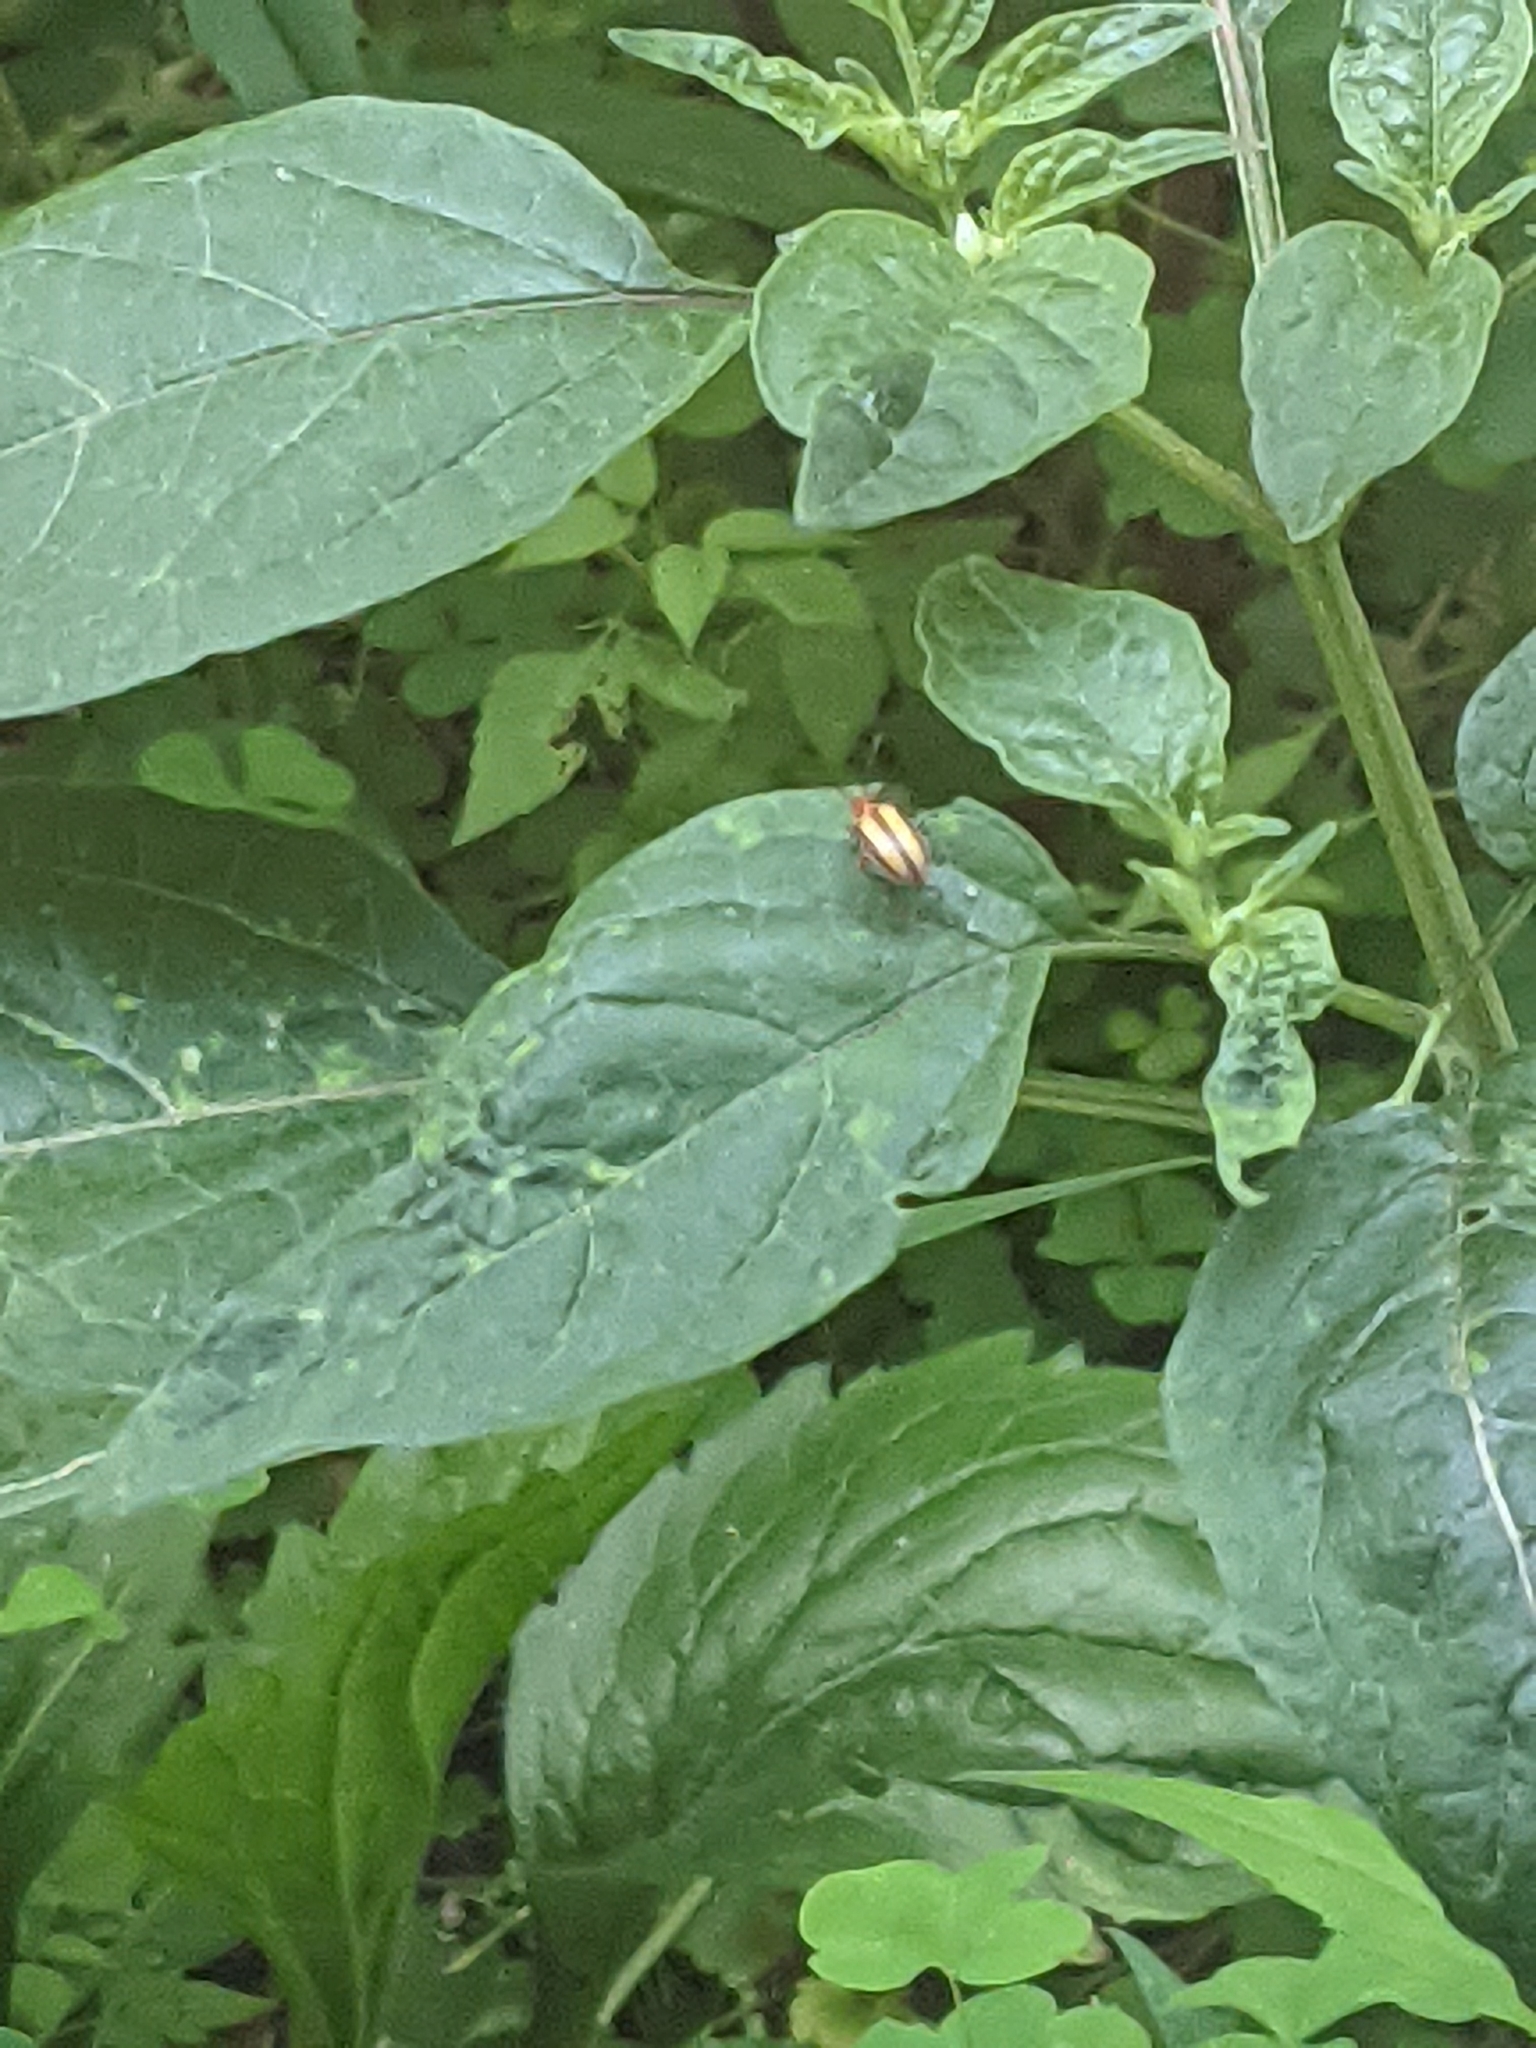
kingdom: Animalia
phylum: Arthropoda
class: Insecta
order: Coleoptera
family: Chrysomelidae
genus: Lema
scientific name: Lema daturaphila
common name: Leaf beetle
